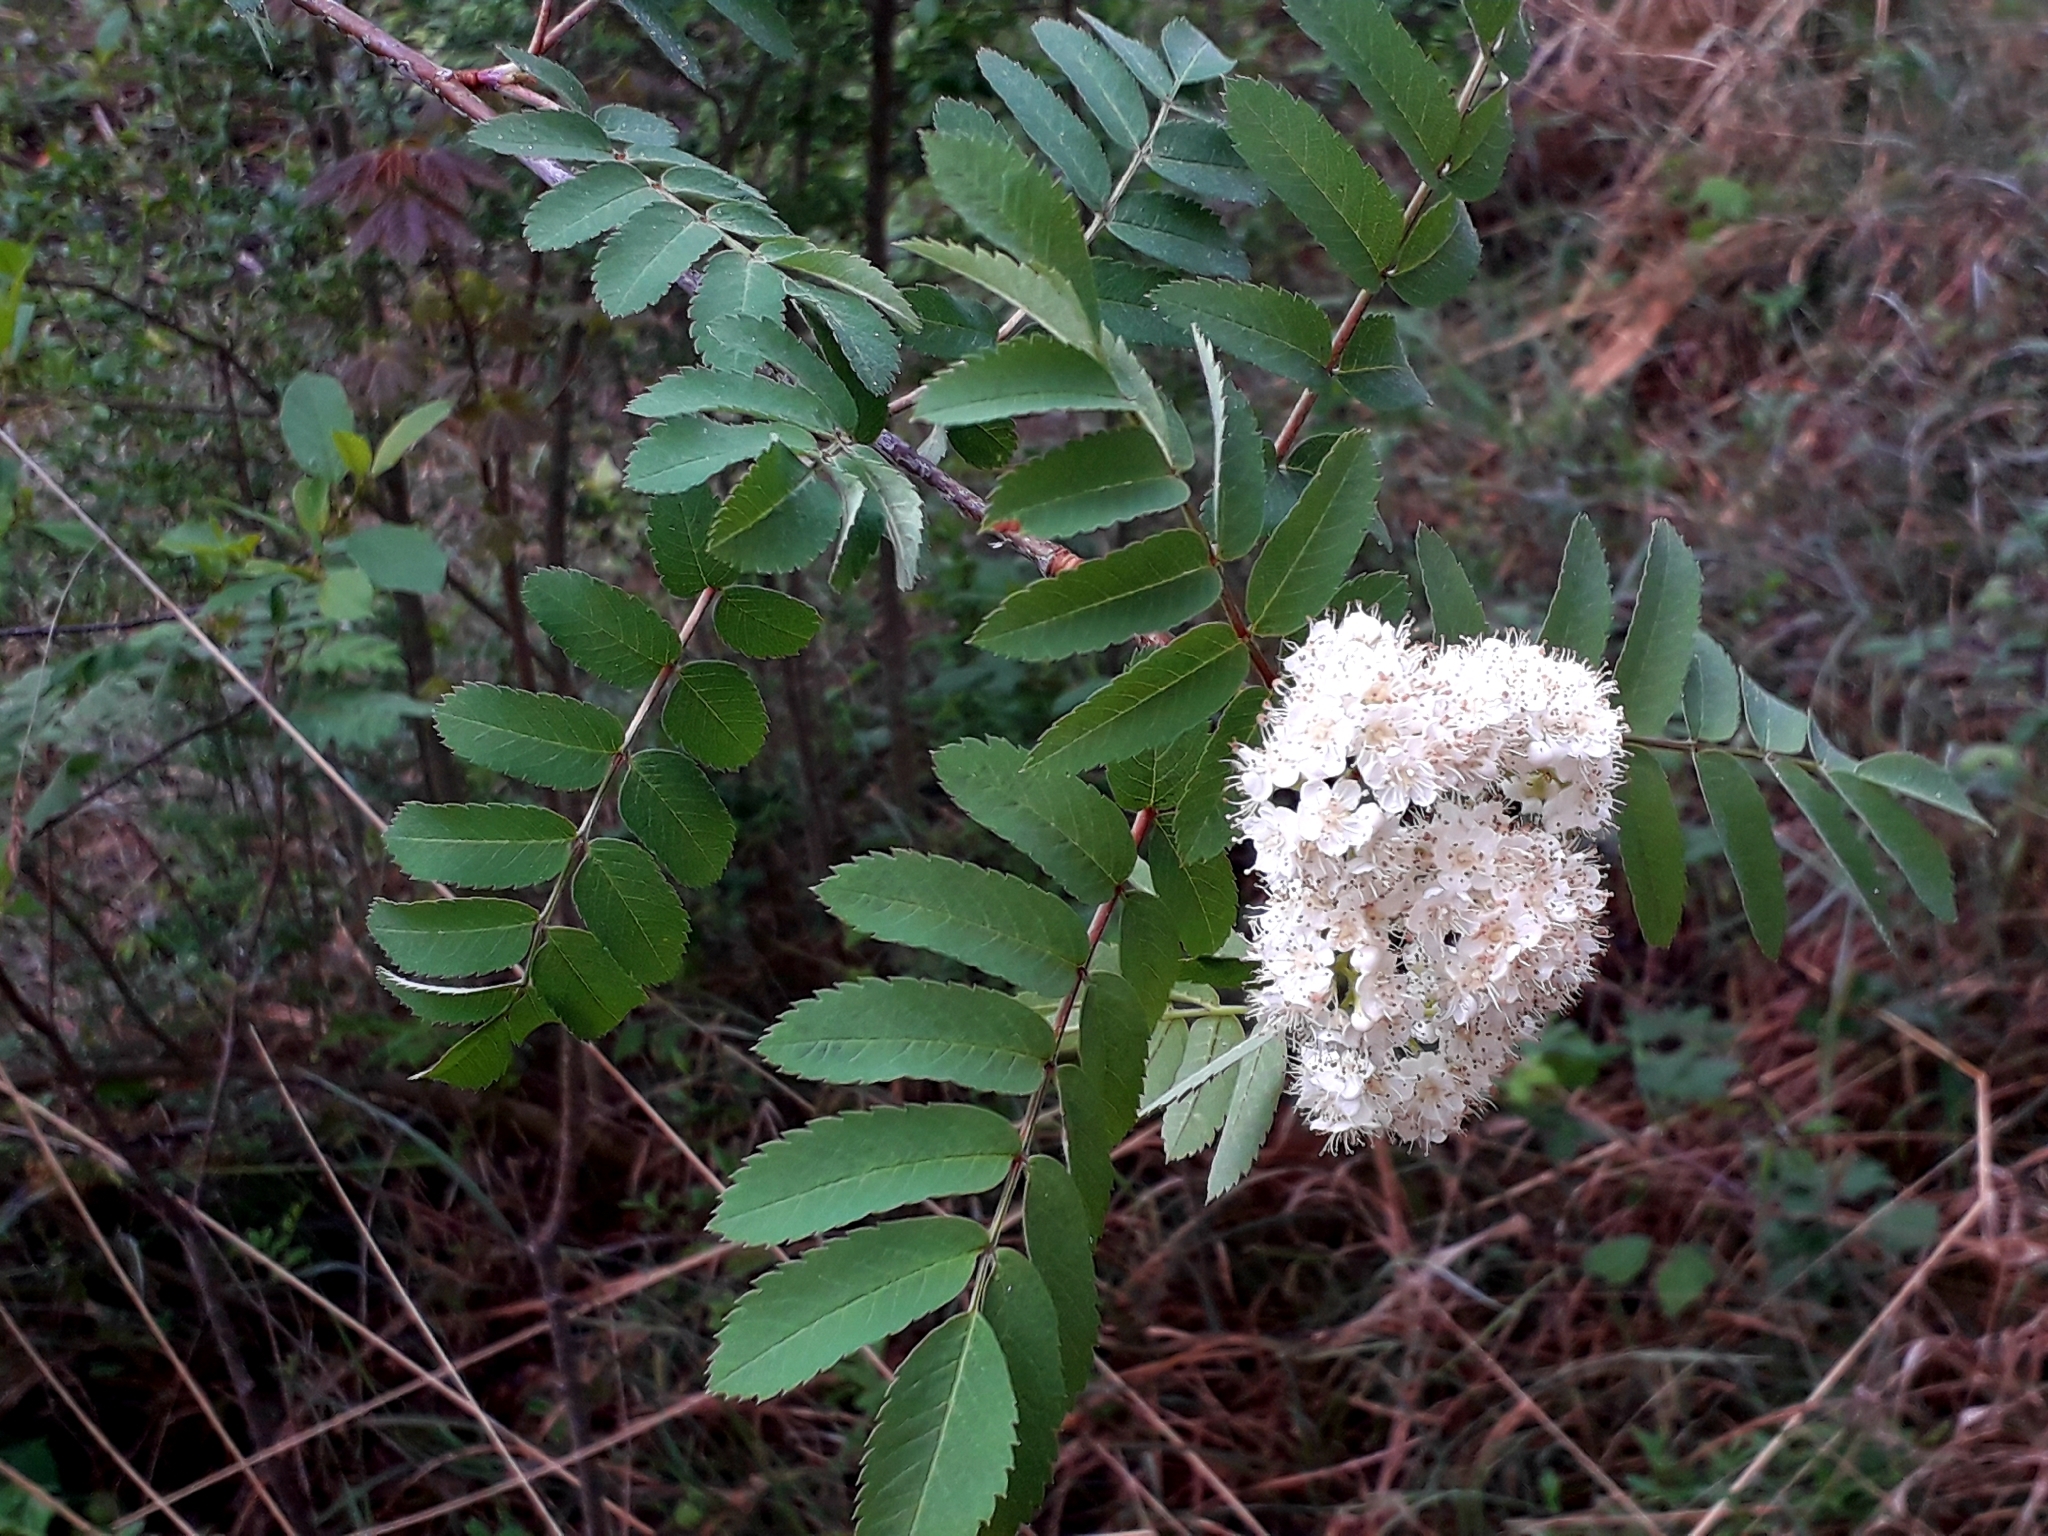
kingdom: Plantae
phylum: Tracheophyta
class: Magnoliopsida
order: Rosales
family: Rosaceae
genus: Sorbus
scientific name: Sorbus aucuparia
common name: Rowan
